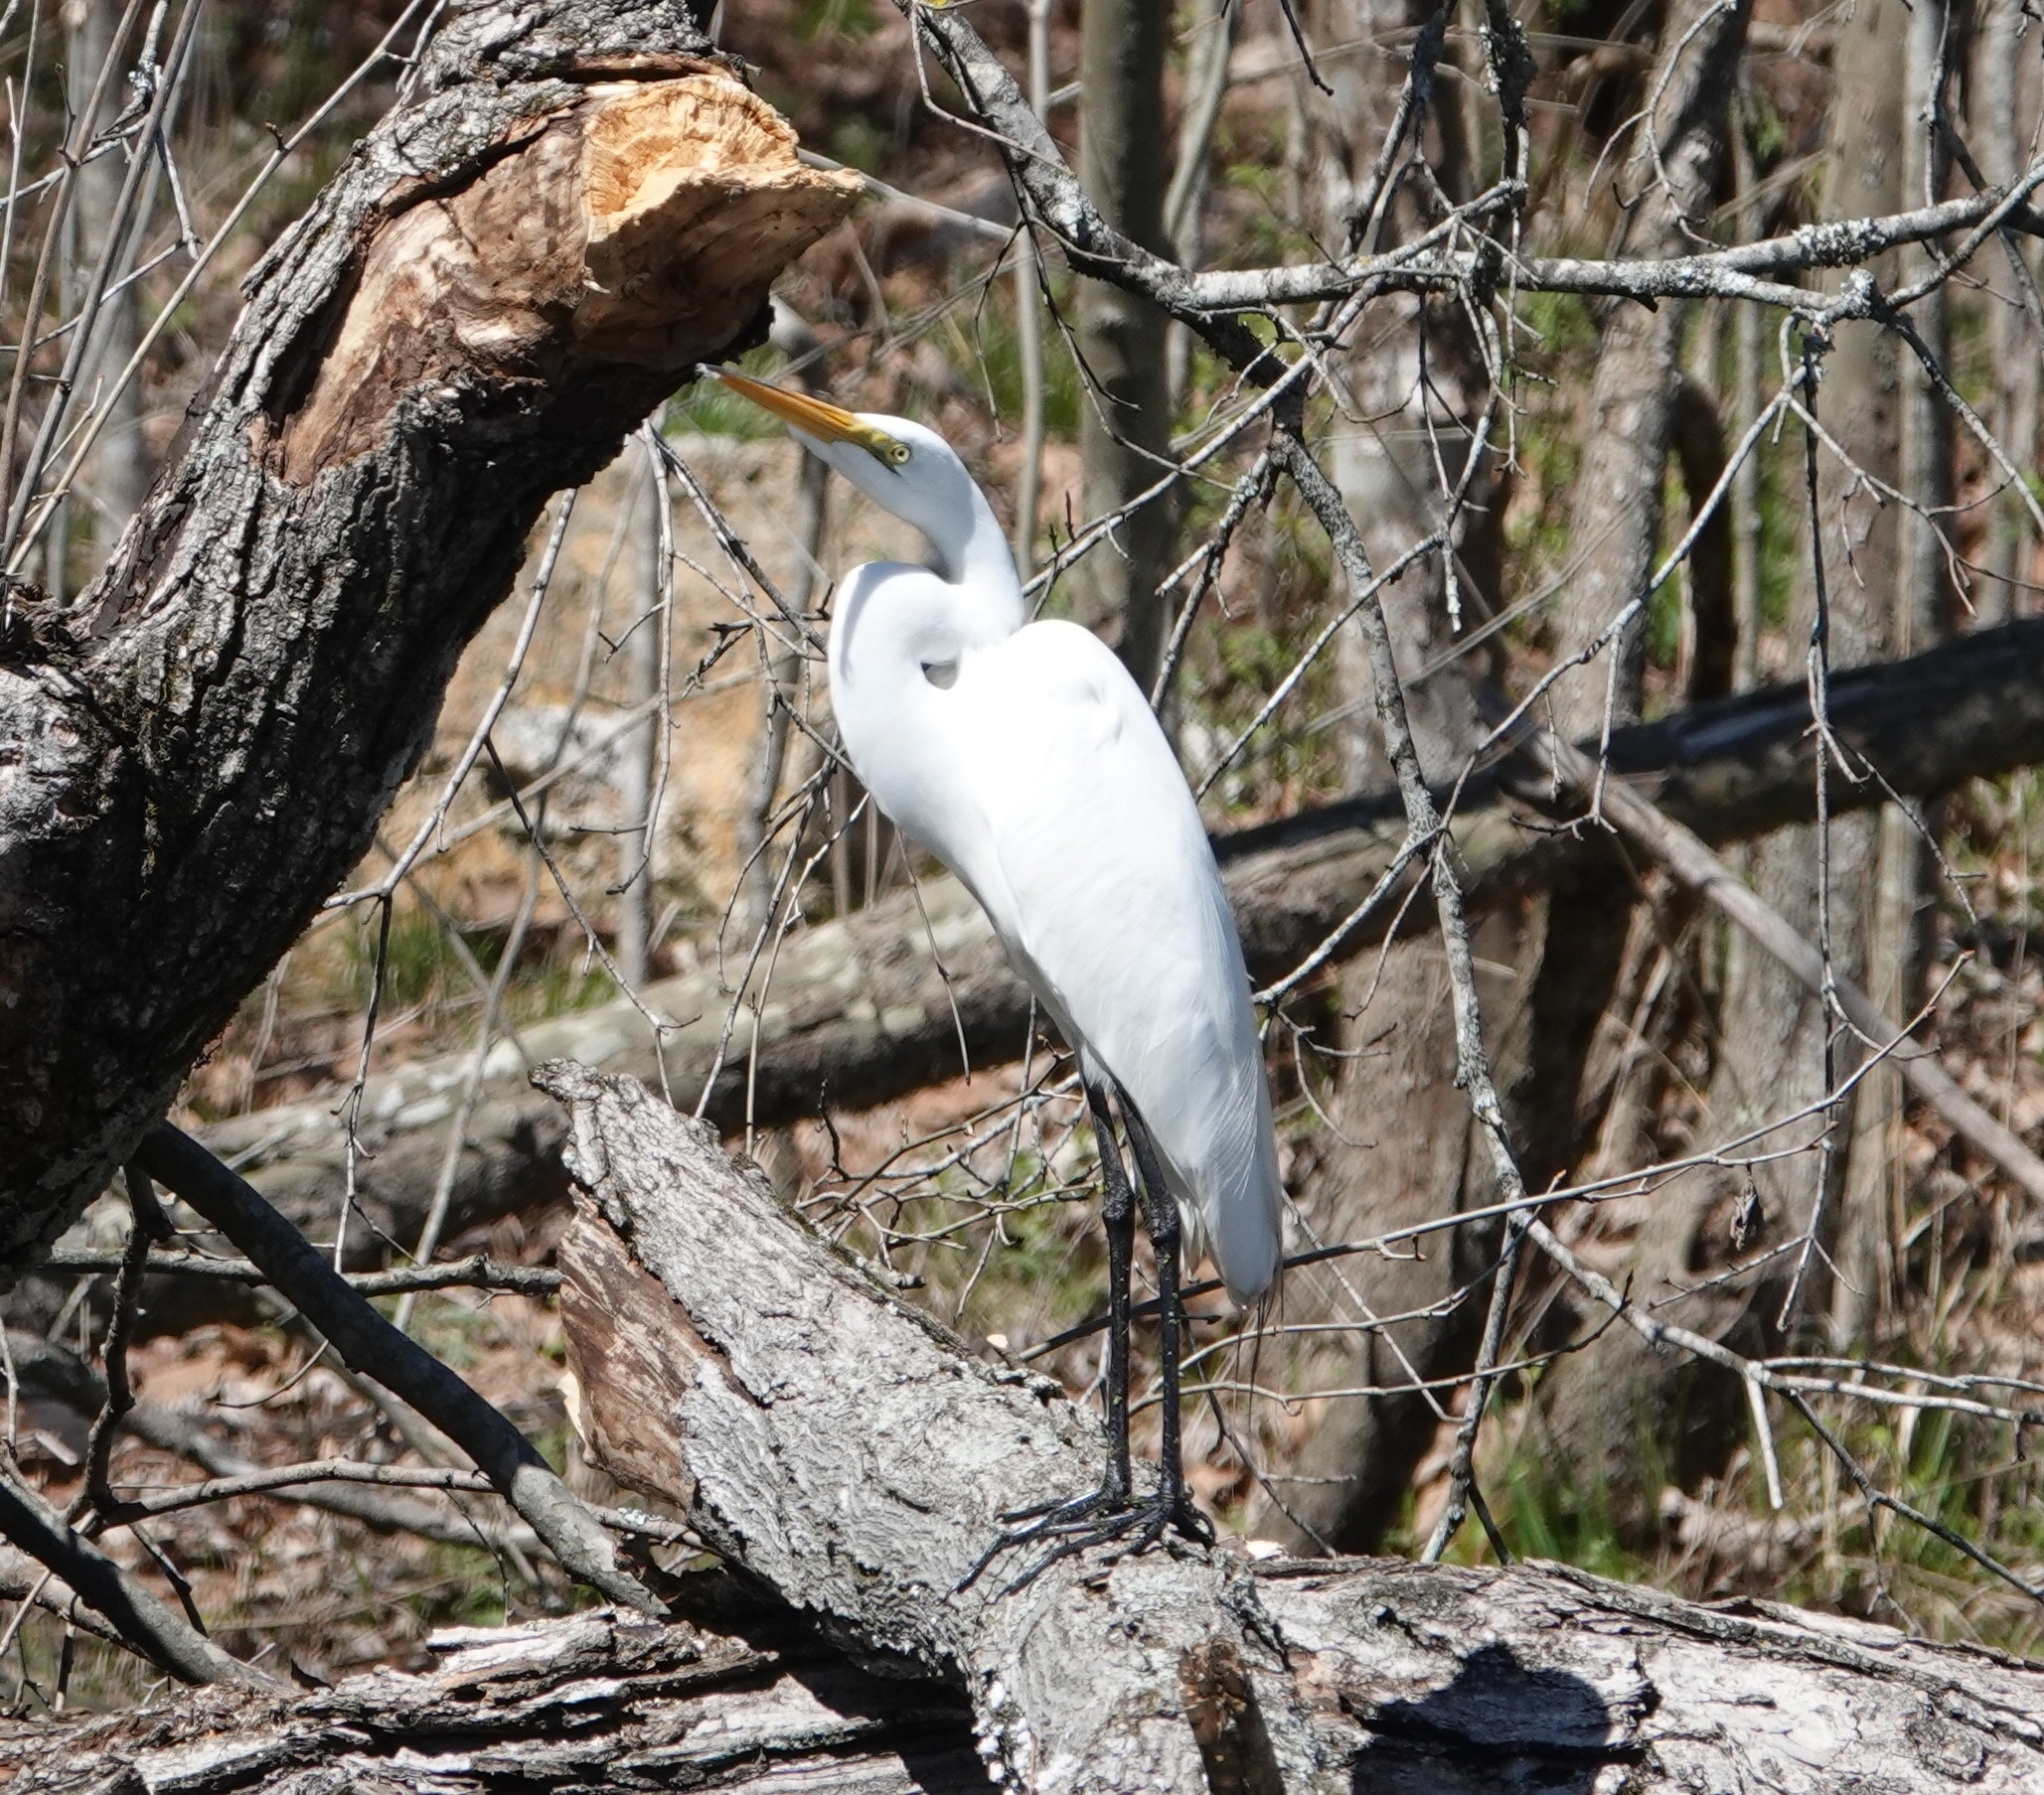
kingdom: Animalia
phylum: Chordata
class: Aves
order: Pelecaniformes
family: Ardeidae
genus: Ardea
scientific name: Ardea alba
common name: Great egret
